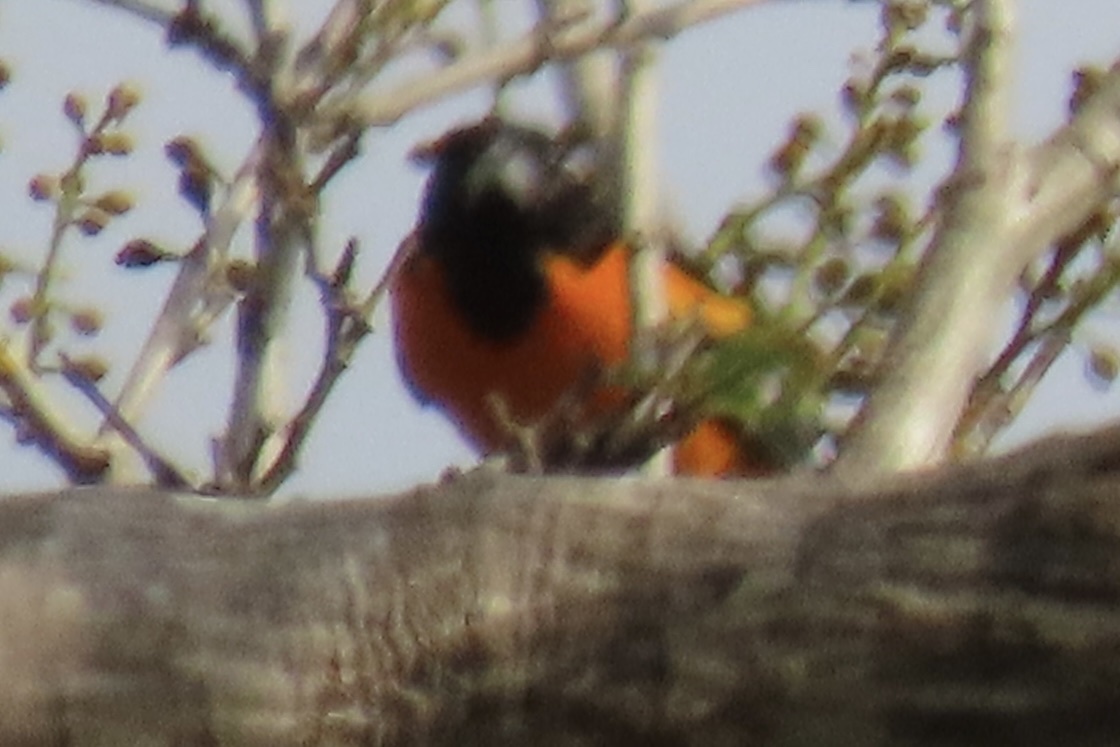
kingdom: Animalia
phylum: Chordata
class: Aves
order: Passeriformes
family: Icteridae
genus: Icterus
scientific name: Icterus galbula
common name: Baltimore oriole
